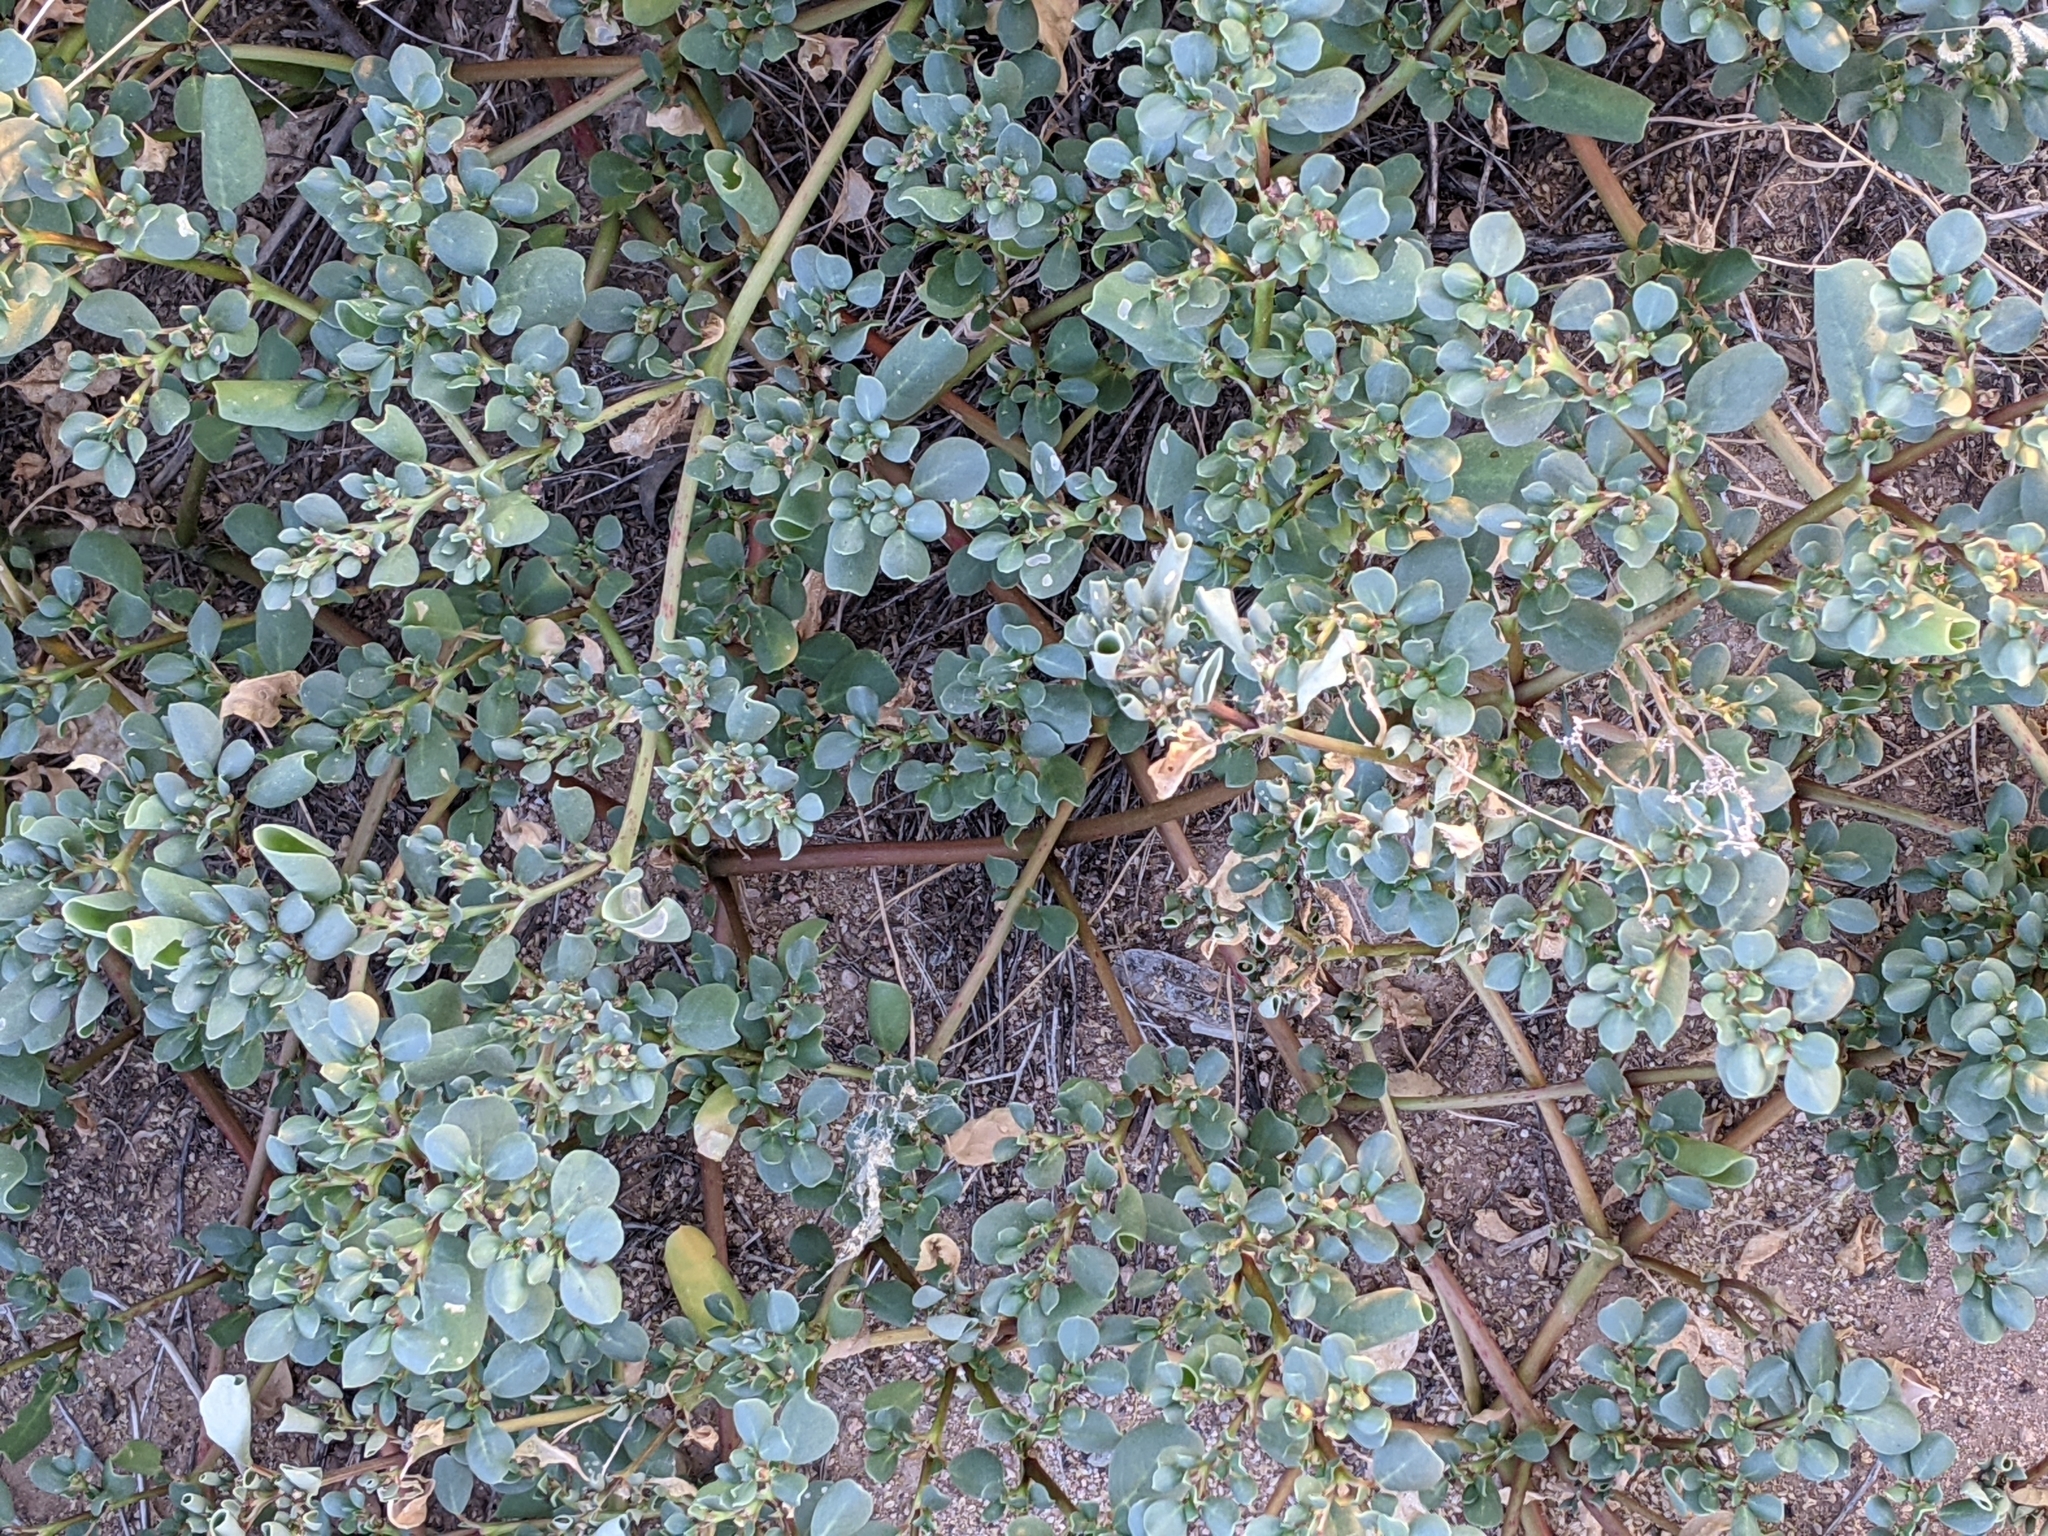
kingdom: Plantae
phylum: Tracheophyta
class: Magnoliopsida
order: Caryophyllales
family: Aizoaceae
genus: Trianthema
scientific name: Trianthema portulacastrum
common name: Desert horsepurslane
